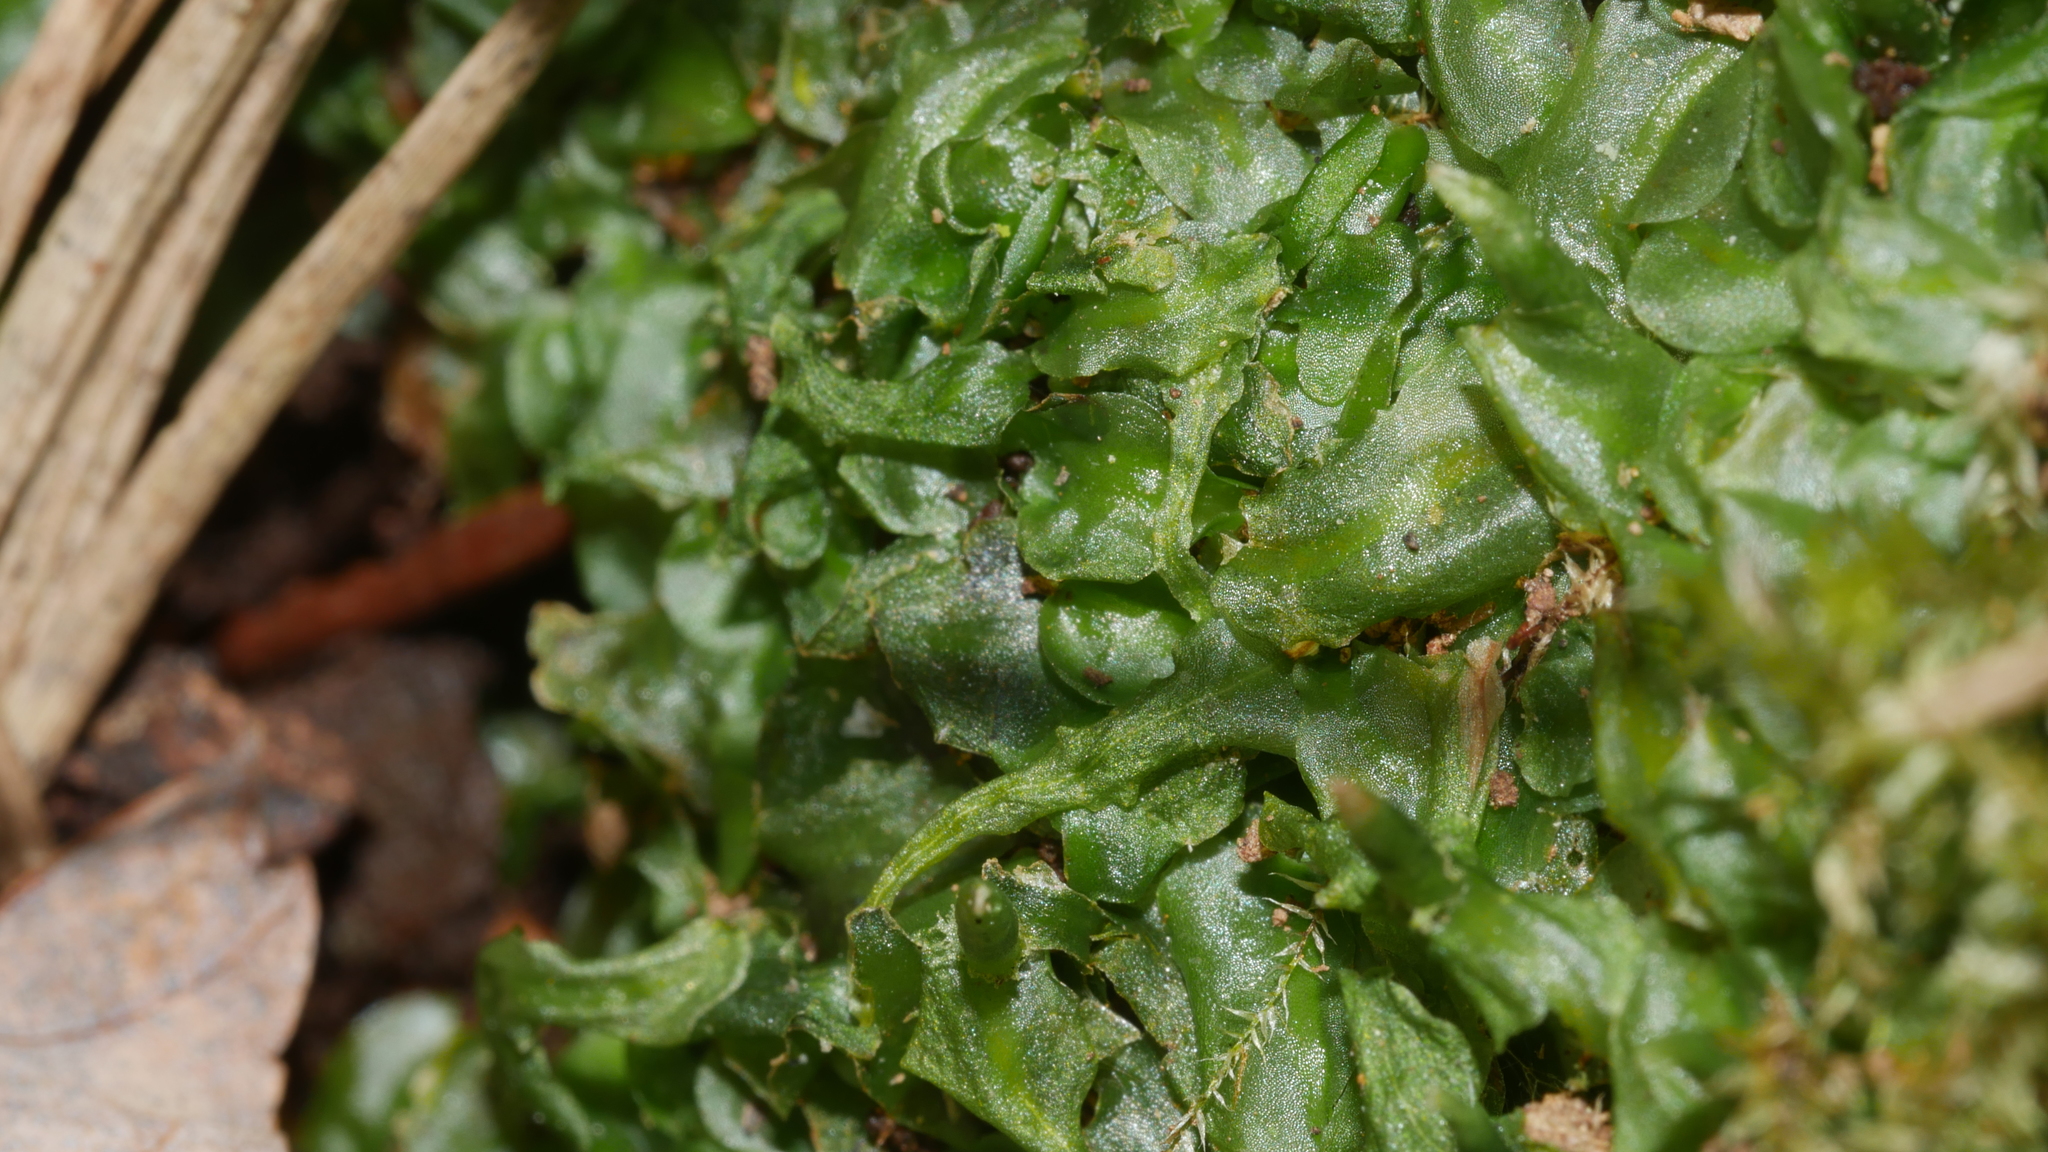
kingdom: Plantae
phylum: Marchantiophyta
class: Jungermanniopsida
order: Pallaviciniales
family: Pallaviciniaceae
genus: Pallavicinia
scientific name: Pallavicinia lyellii
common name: Veilwort
